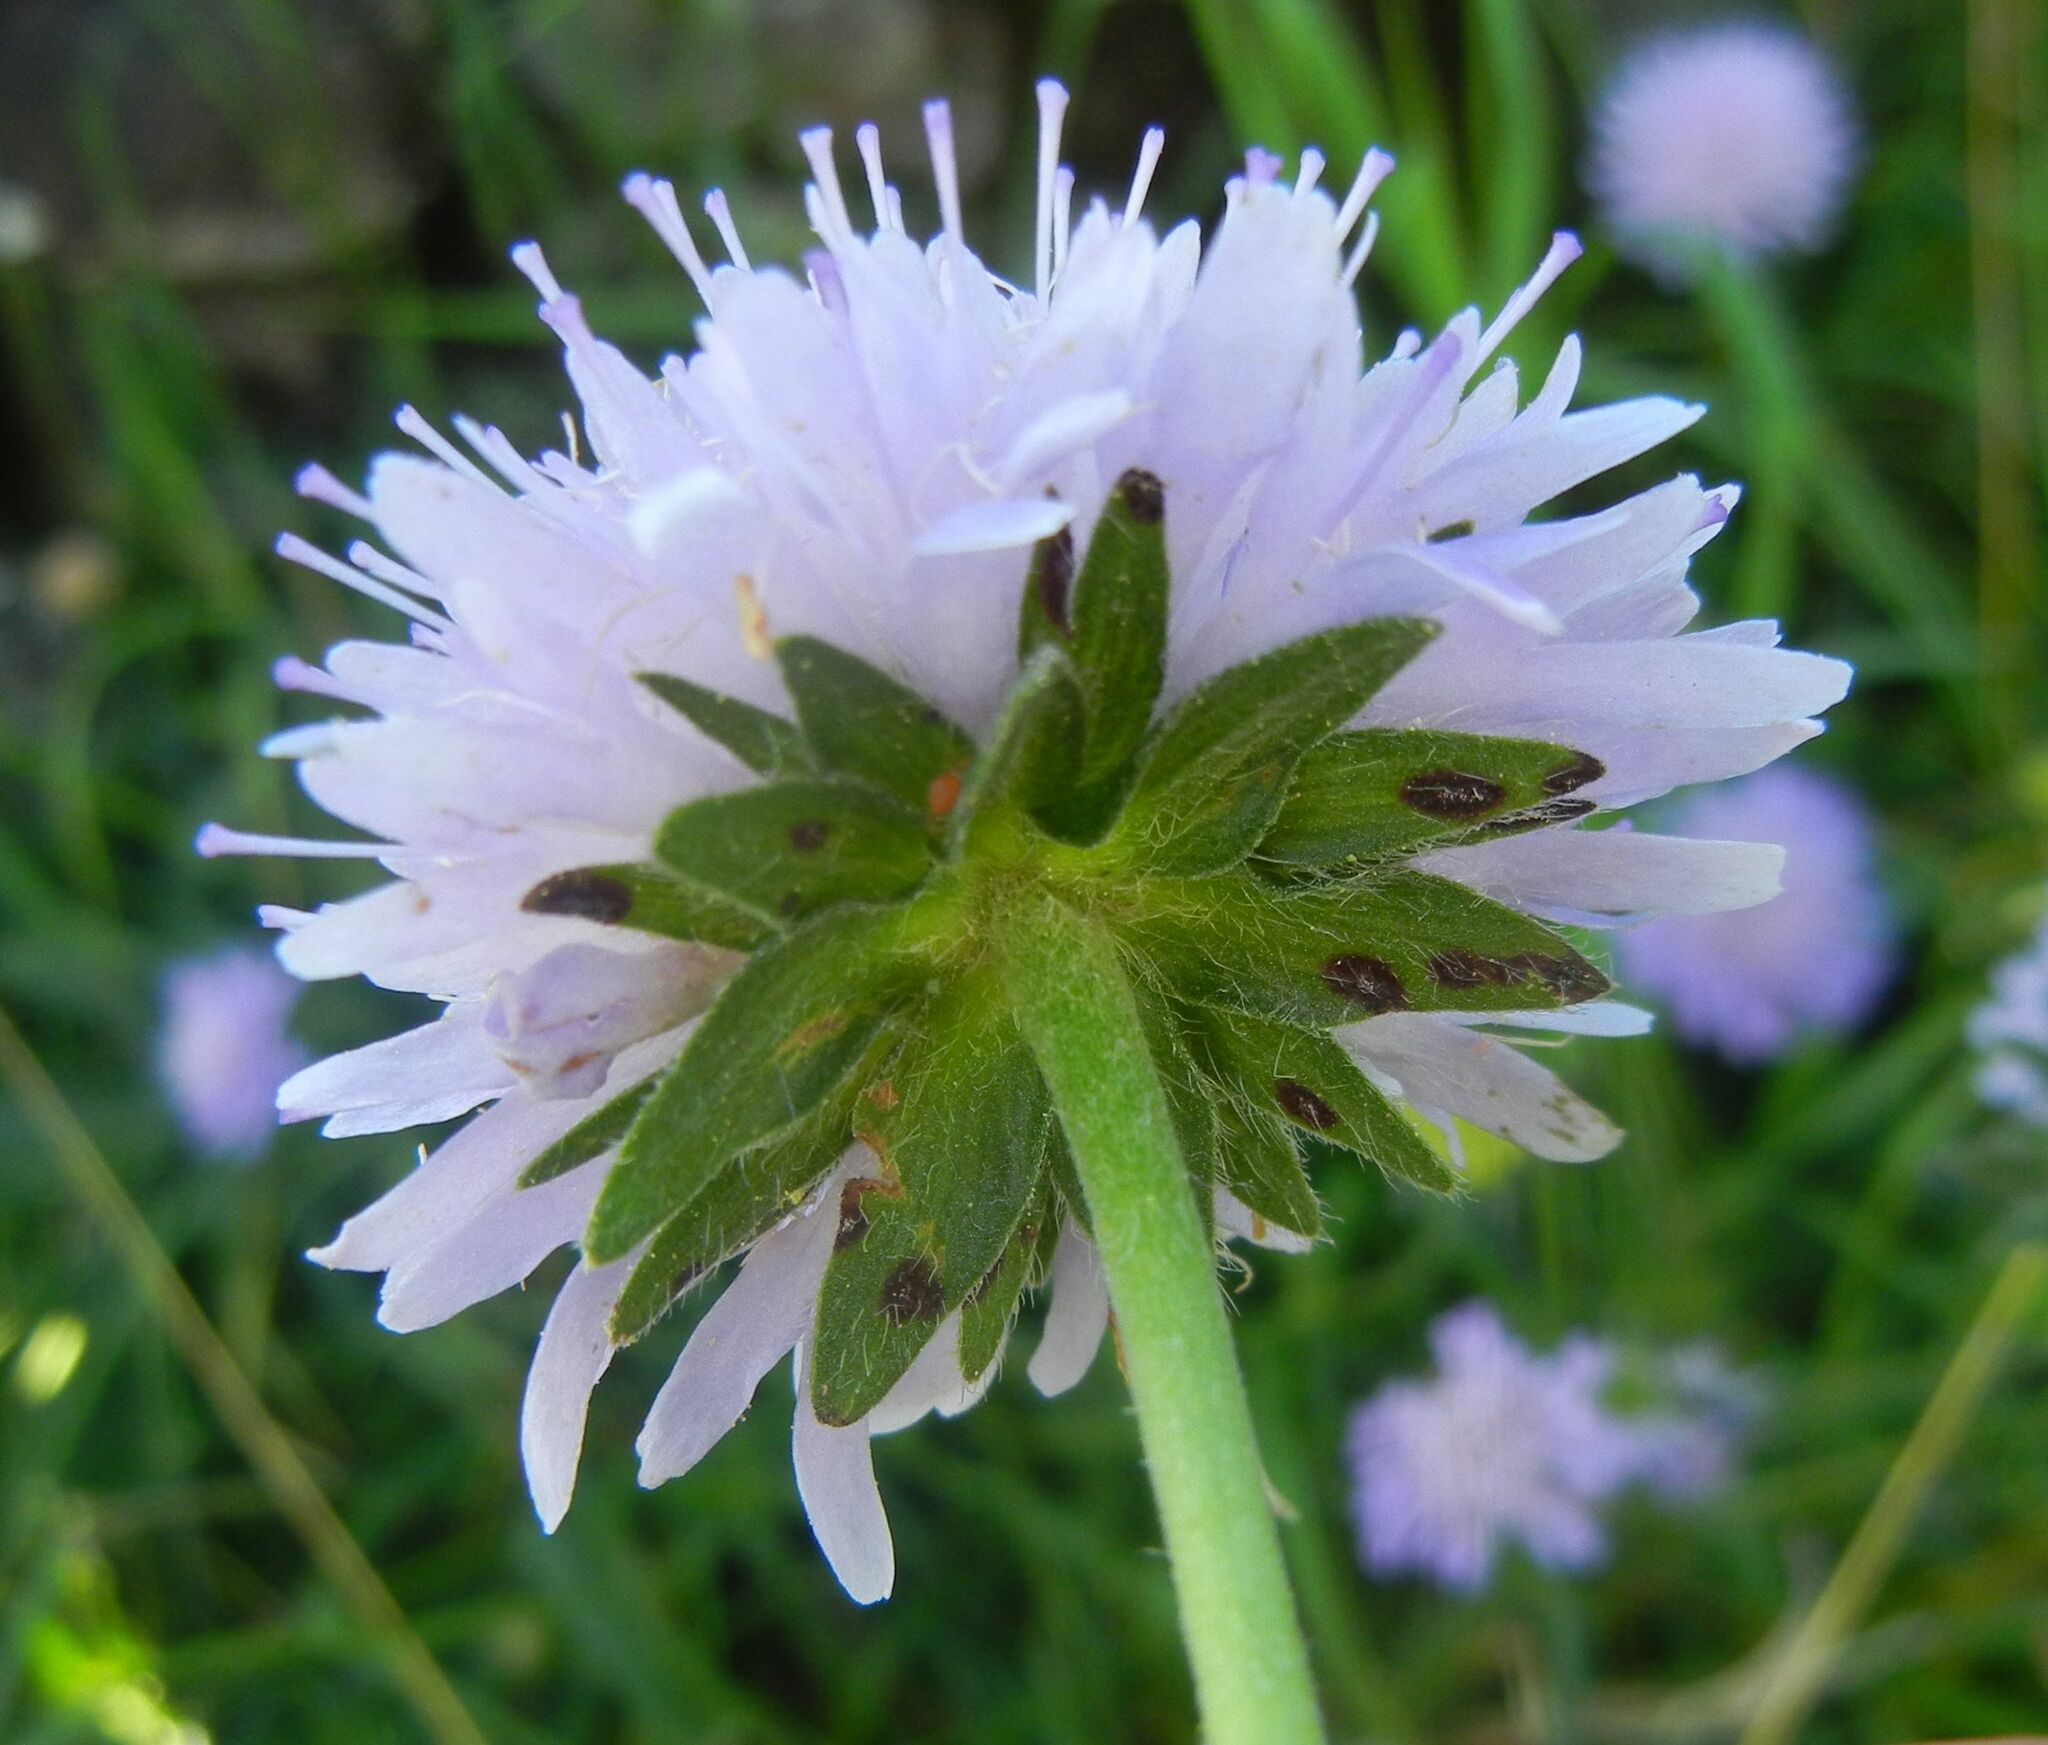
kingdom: Plantae
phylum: Tracheophyta
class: Magnoliopsida
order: Dipsacales
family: Caprifoliaceae
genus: Knautia
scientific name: Knautia arvensis
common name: Field scabiosa
